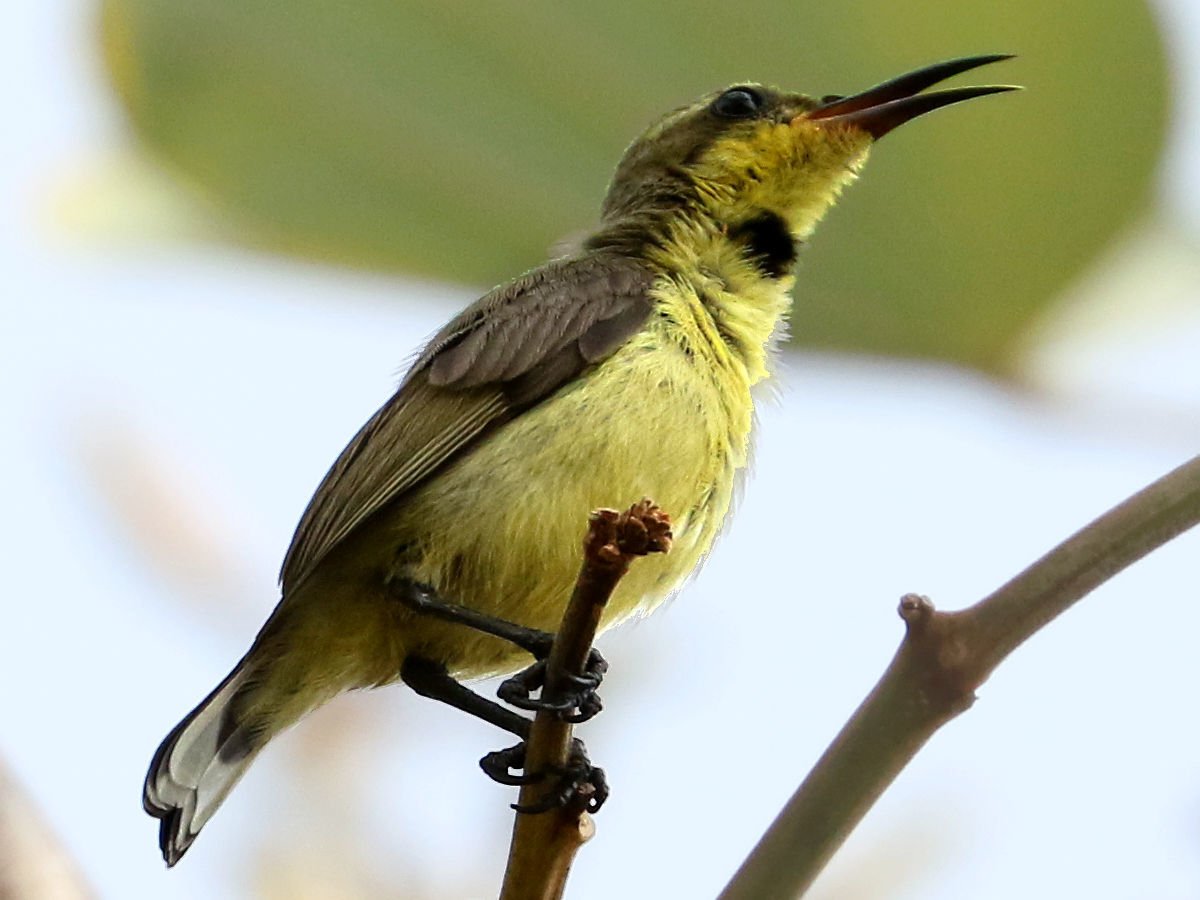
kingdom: Animalia
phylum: Chordata
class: Aves
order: Passeriformes
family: Nectariniidae
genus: Cinnyris
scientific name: Cinnyris
